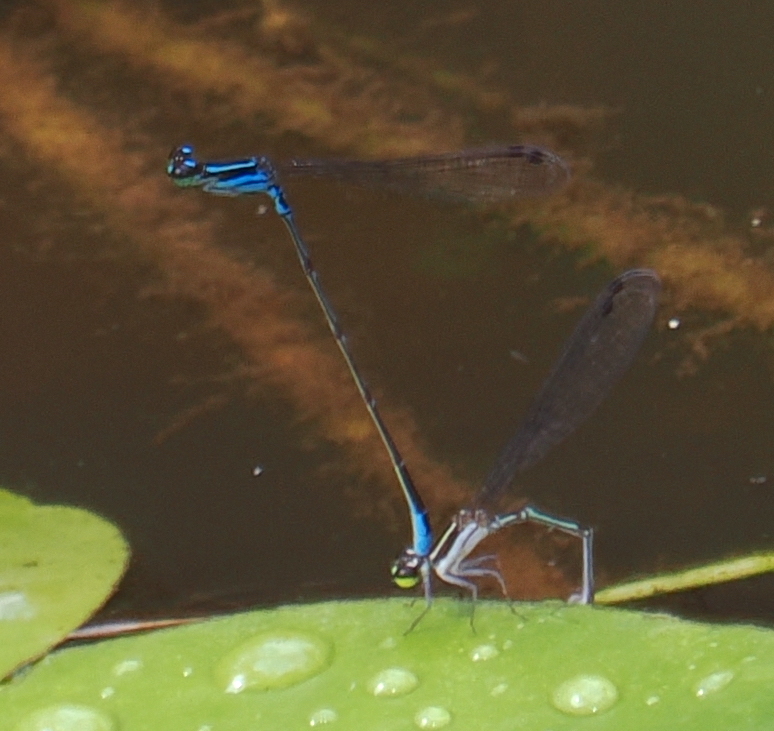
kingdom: Animalia
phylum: Arthropoda
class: Insecta
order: Odonata
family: Coenagrionidae
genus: Mortonagrion
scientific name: Mortonagrion aborense
